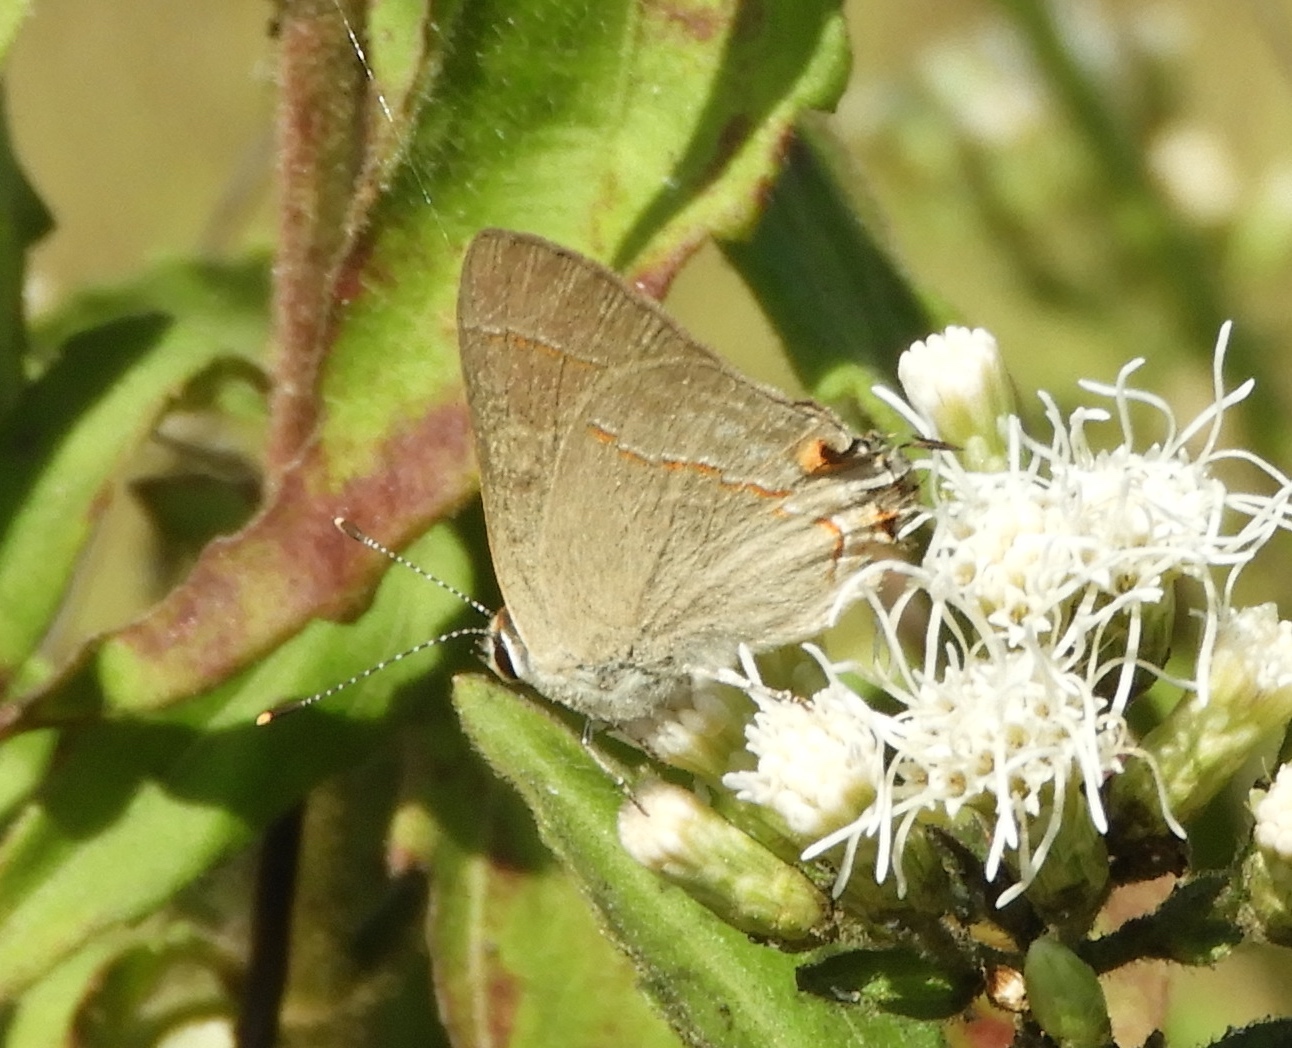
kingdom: Animalia
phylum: Arthropoda
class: Insecta
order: Lepidoptera
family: Lycaenidae
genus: Thecla
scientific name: Thecla bebrycia
